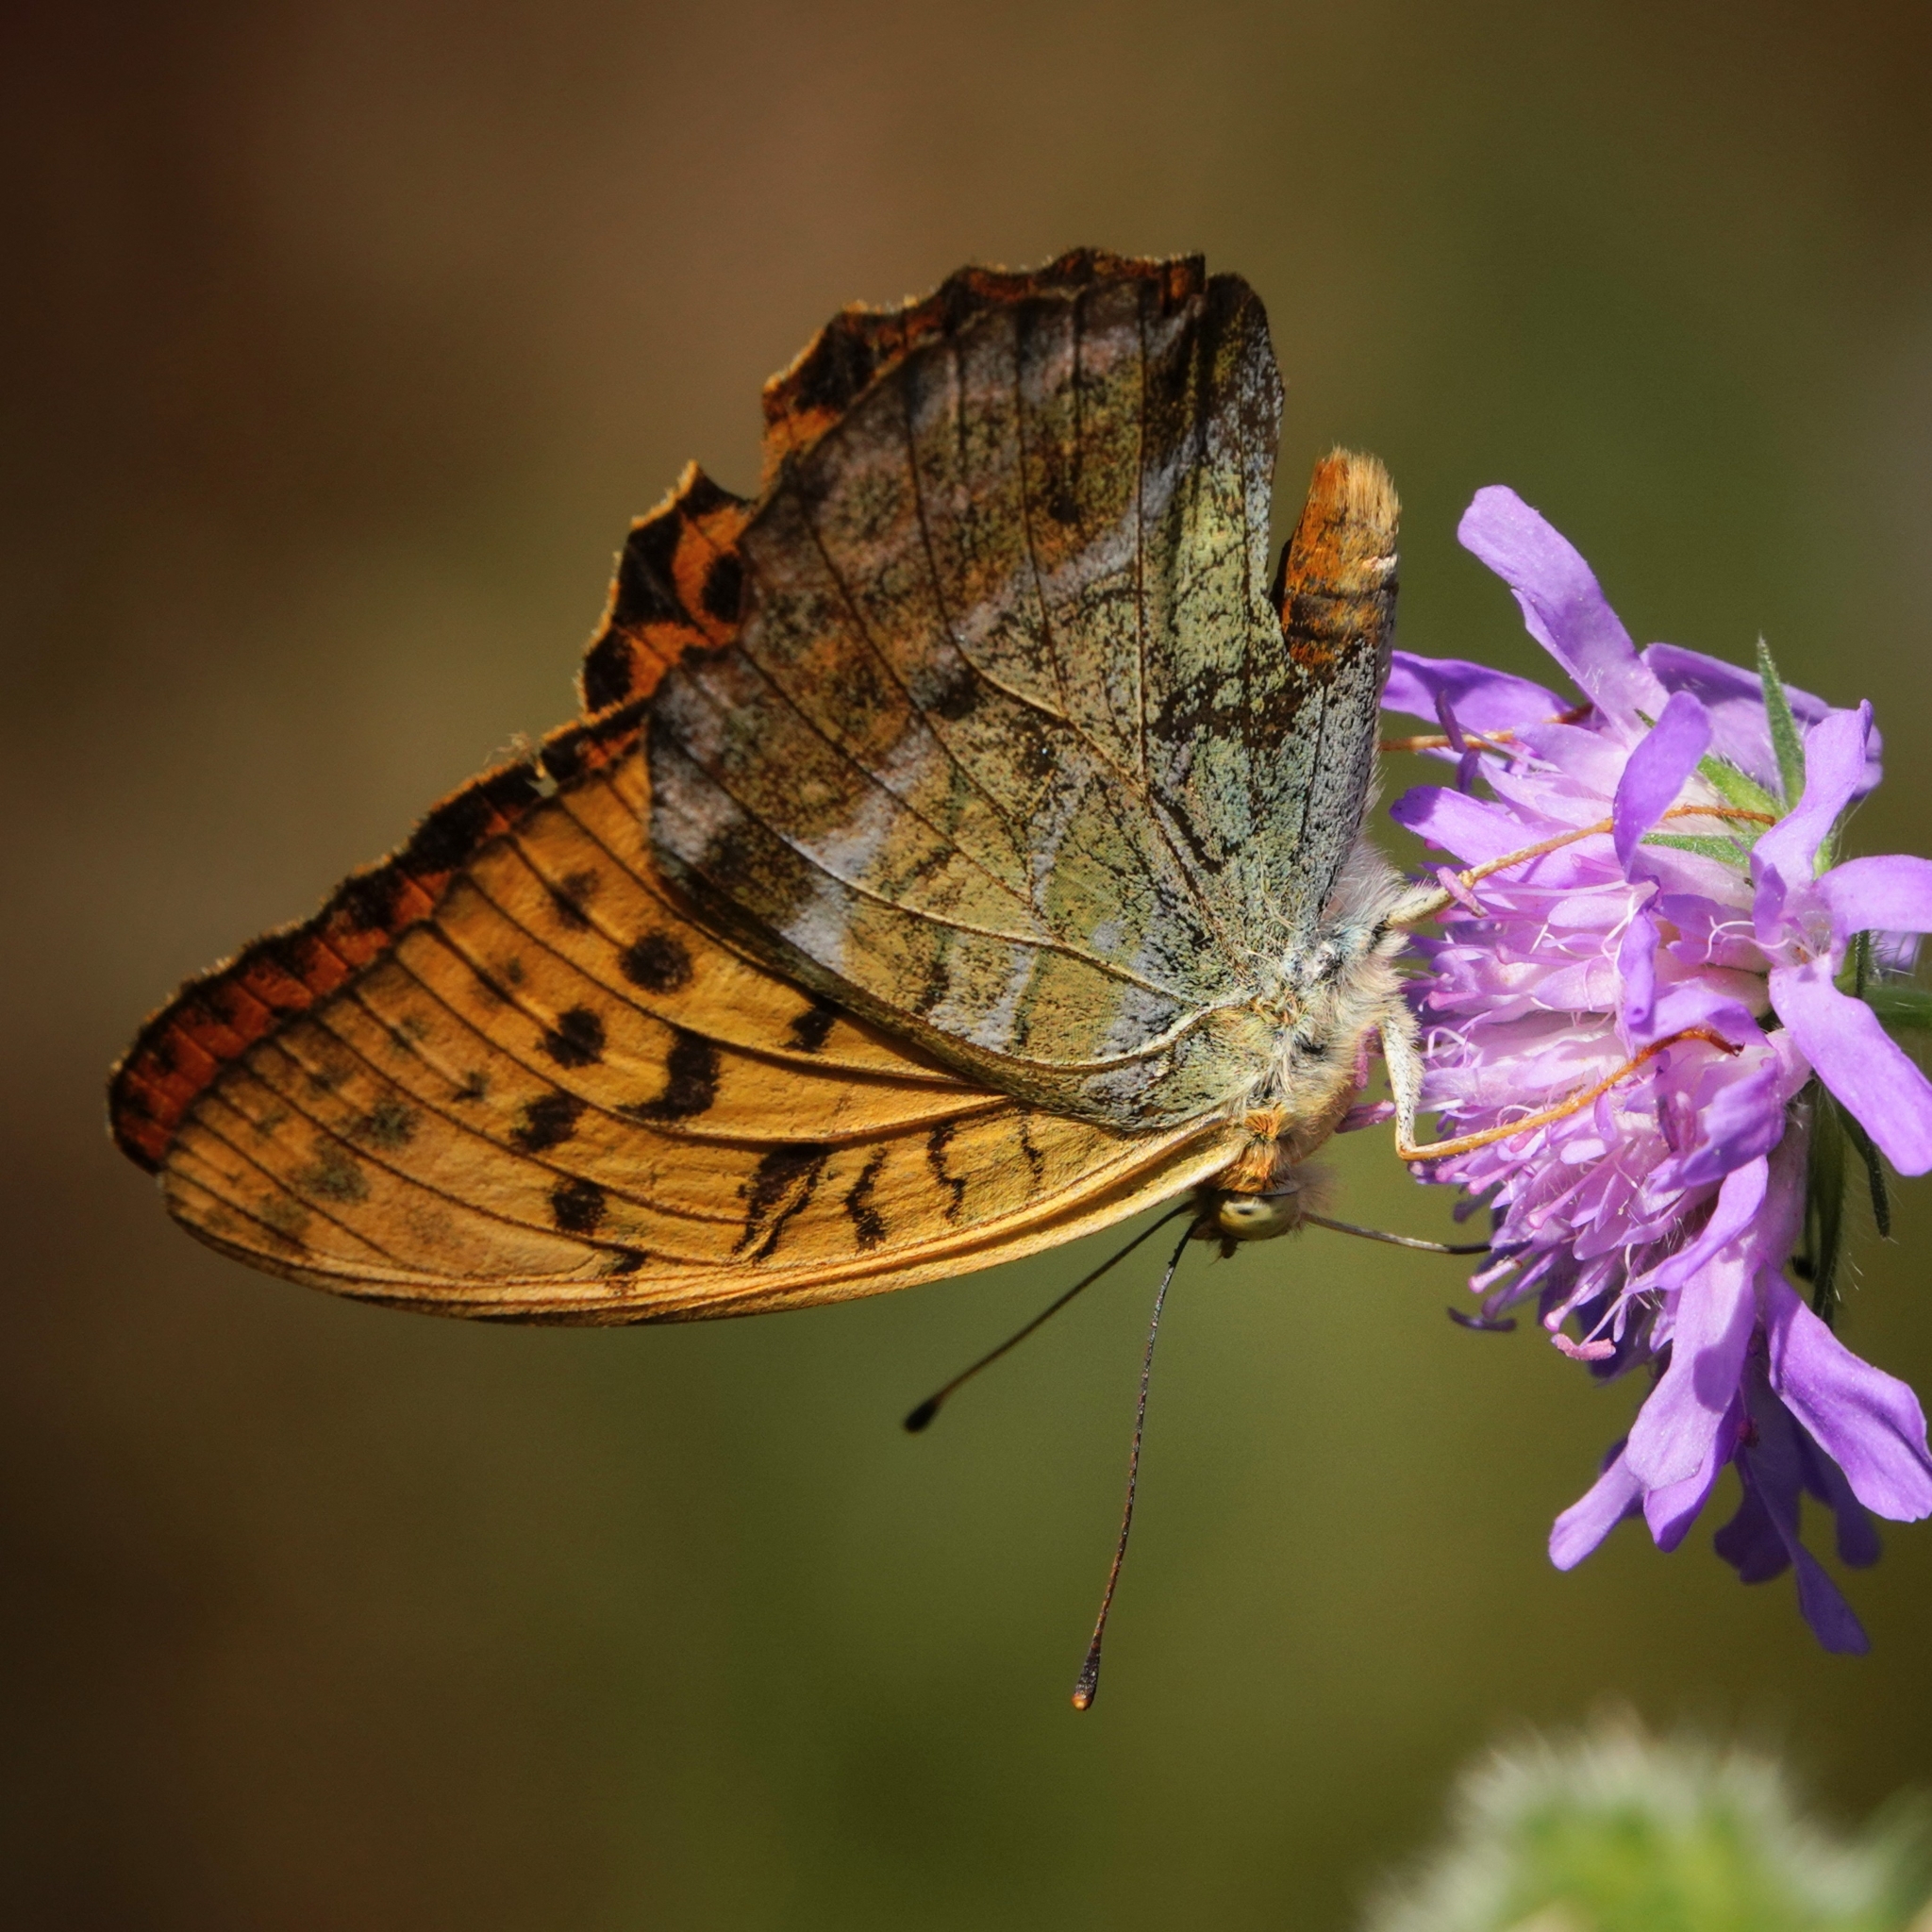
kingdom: Animalia
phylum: Arthropoda
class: Insecta
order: Lepidoptera
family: Nymphalidae
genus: Argynnis
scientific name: Argynnis paphia
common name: Silver-washed fritillary
